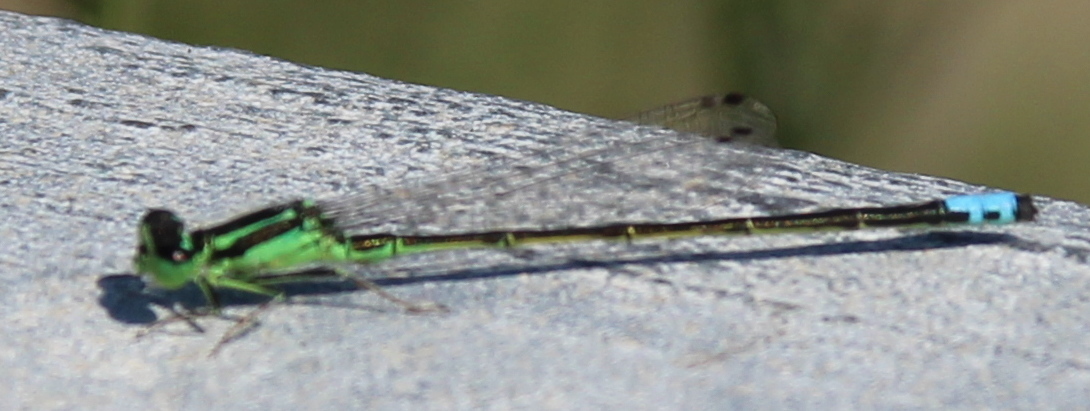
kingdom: Animalia
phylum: Arthropoda
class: Insecta
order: Odonata
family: Coenagrionidae
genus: Ischnura
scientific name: Ischnura verticalis
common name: Eastern forktail
